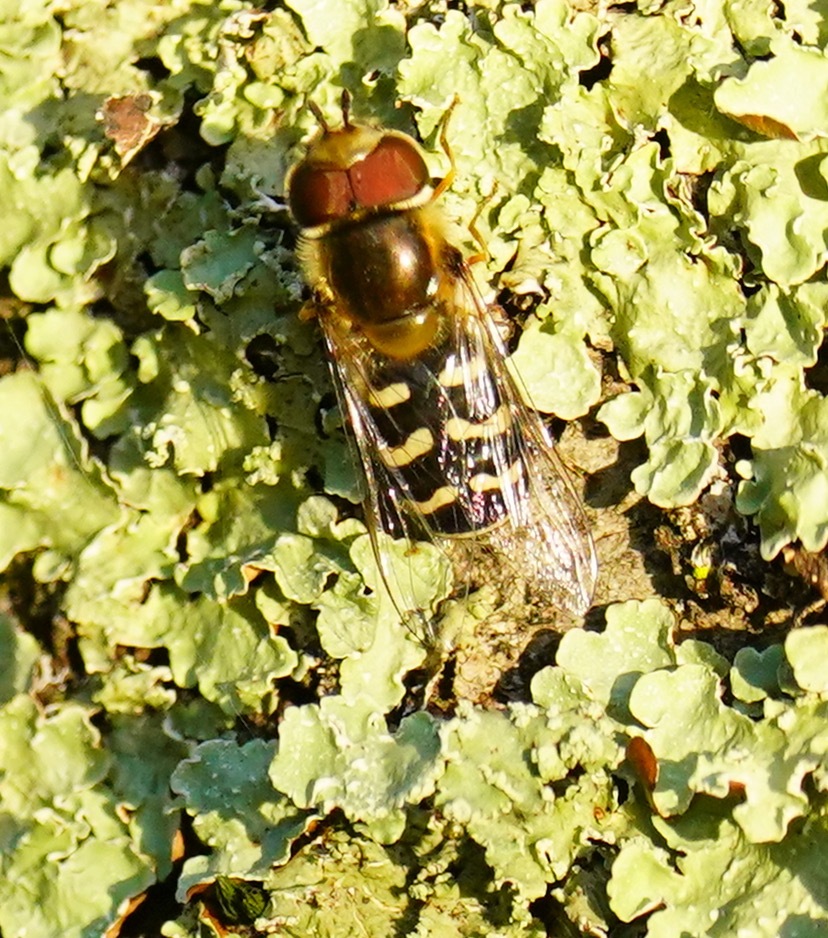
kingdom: Animalia
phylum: Arthropoda
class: Insecta
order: Diptera
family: Syrphidae
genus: Scaeva
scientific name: Scaeva affinis
